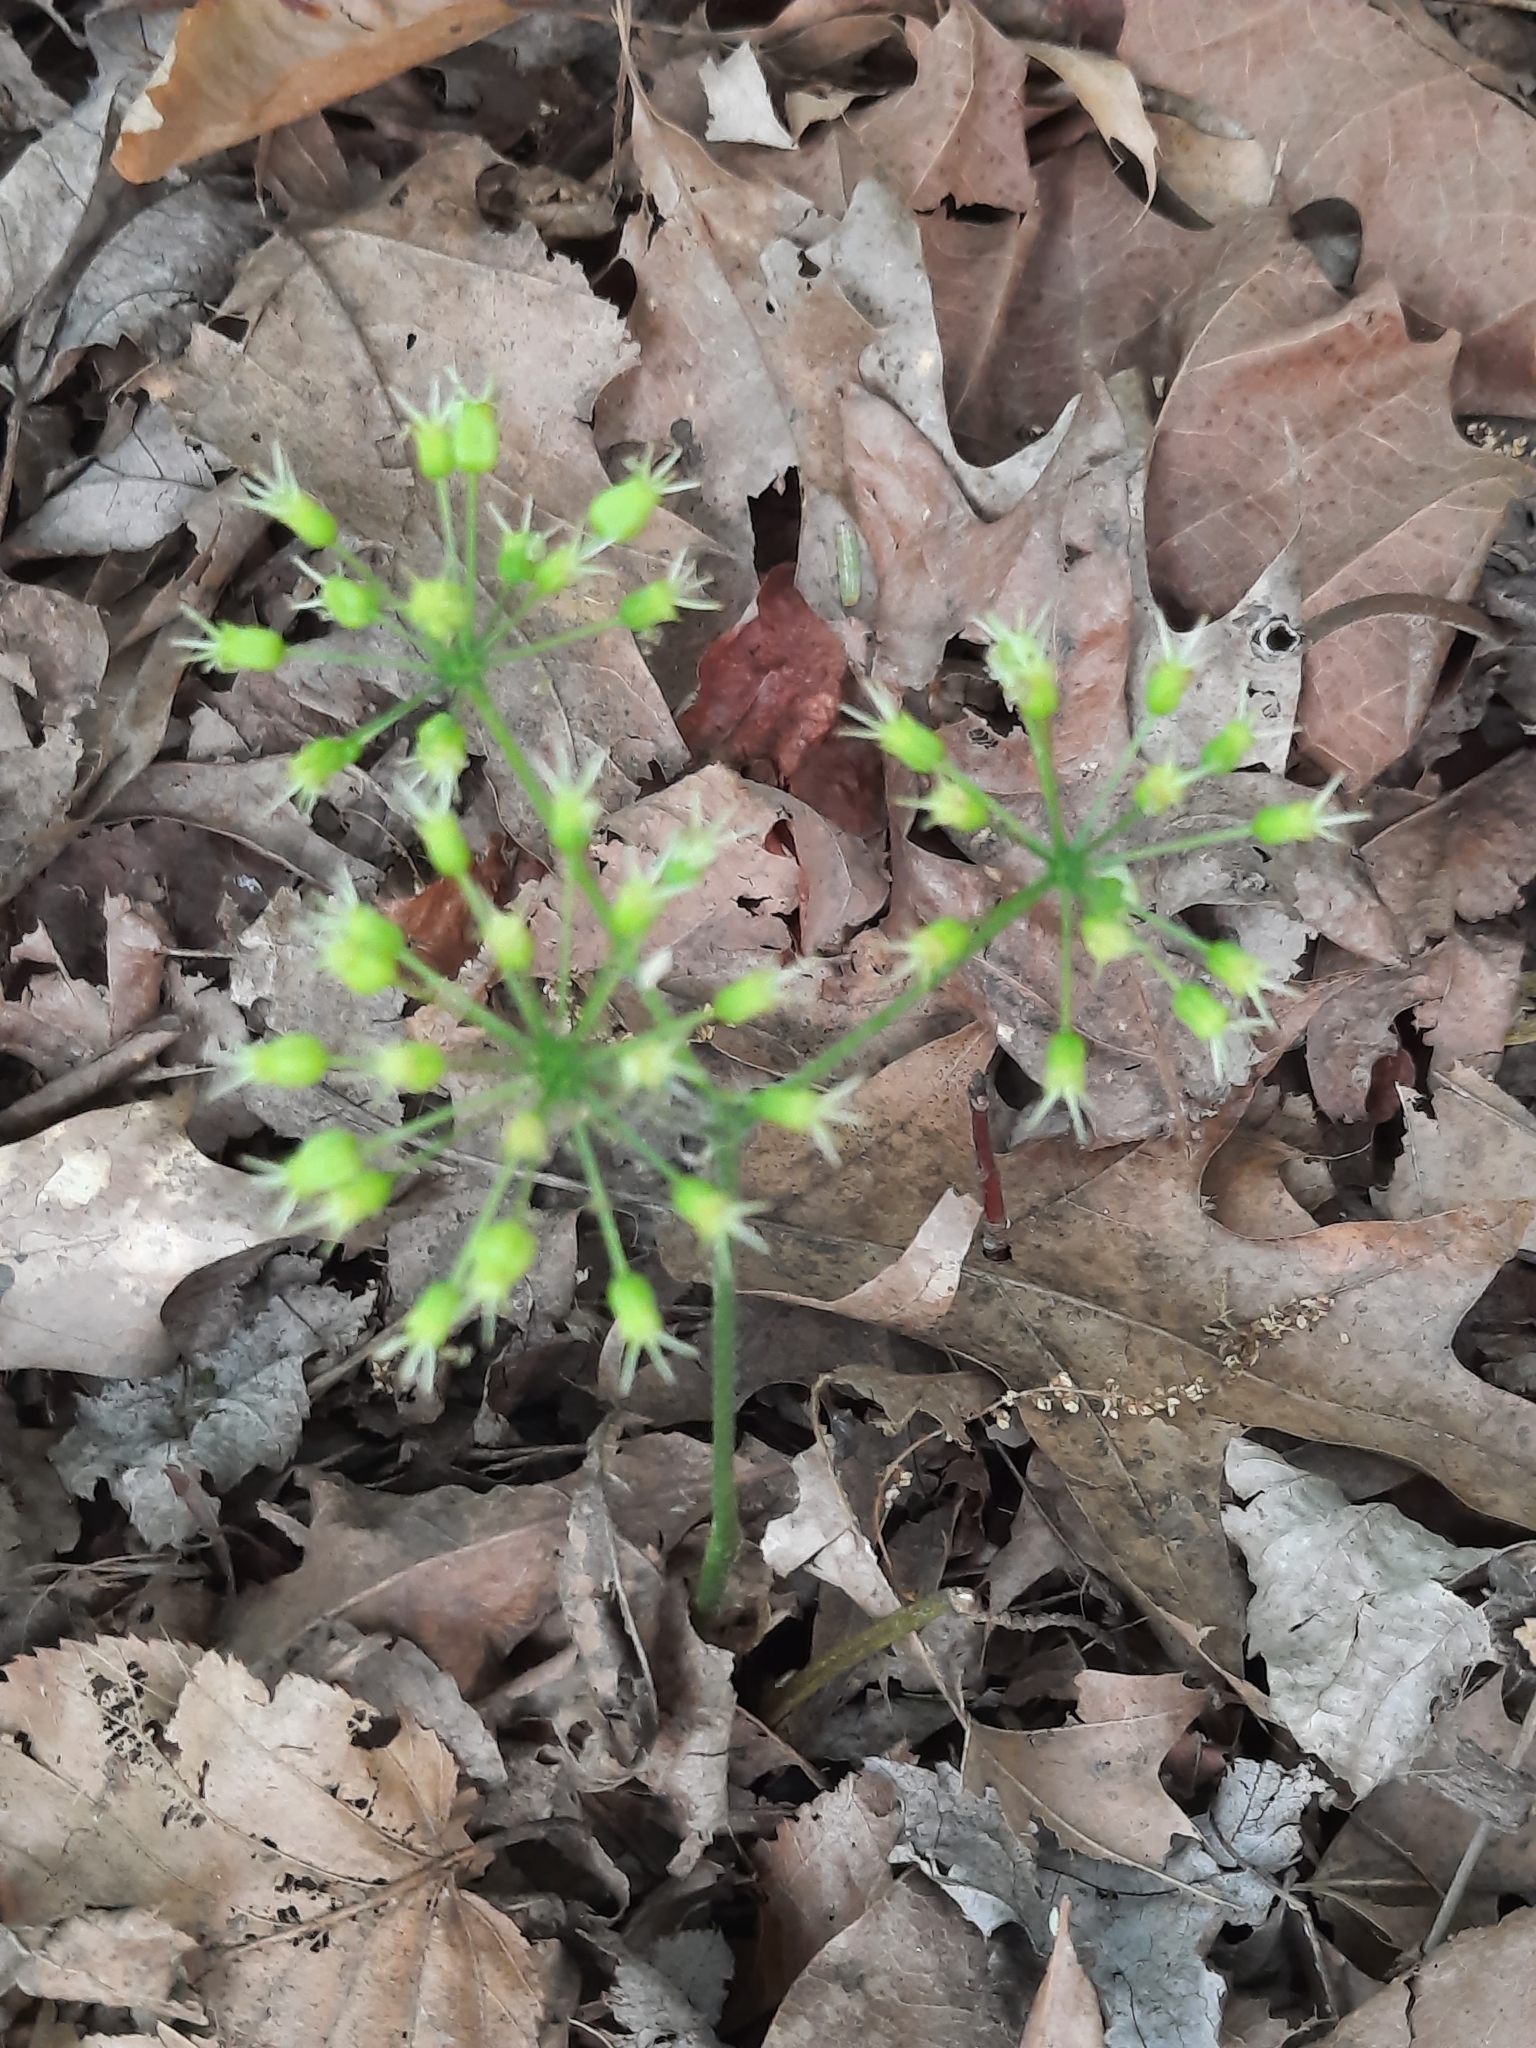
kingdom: Plantae
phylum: Tracheophyta
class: Magnoliopsida
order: Apiales
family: Araliaceae
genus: Aralia
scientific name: Aralia nudicaulis
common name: Wild sarsaparilla
